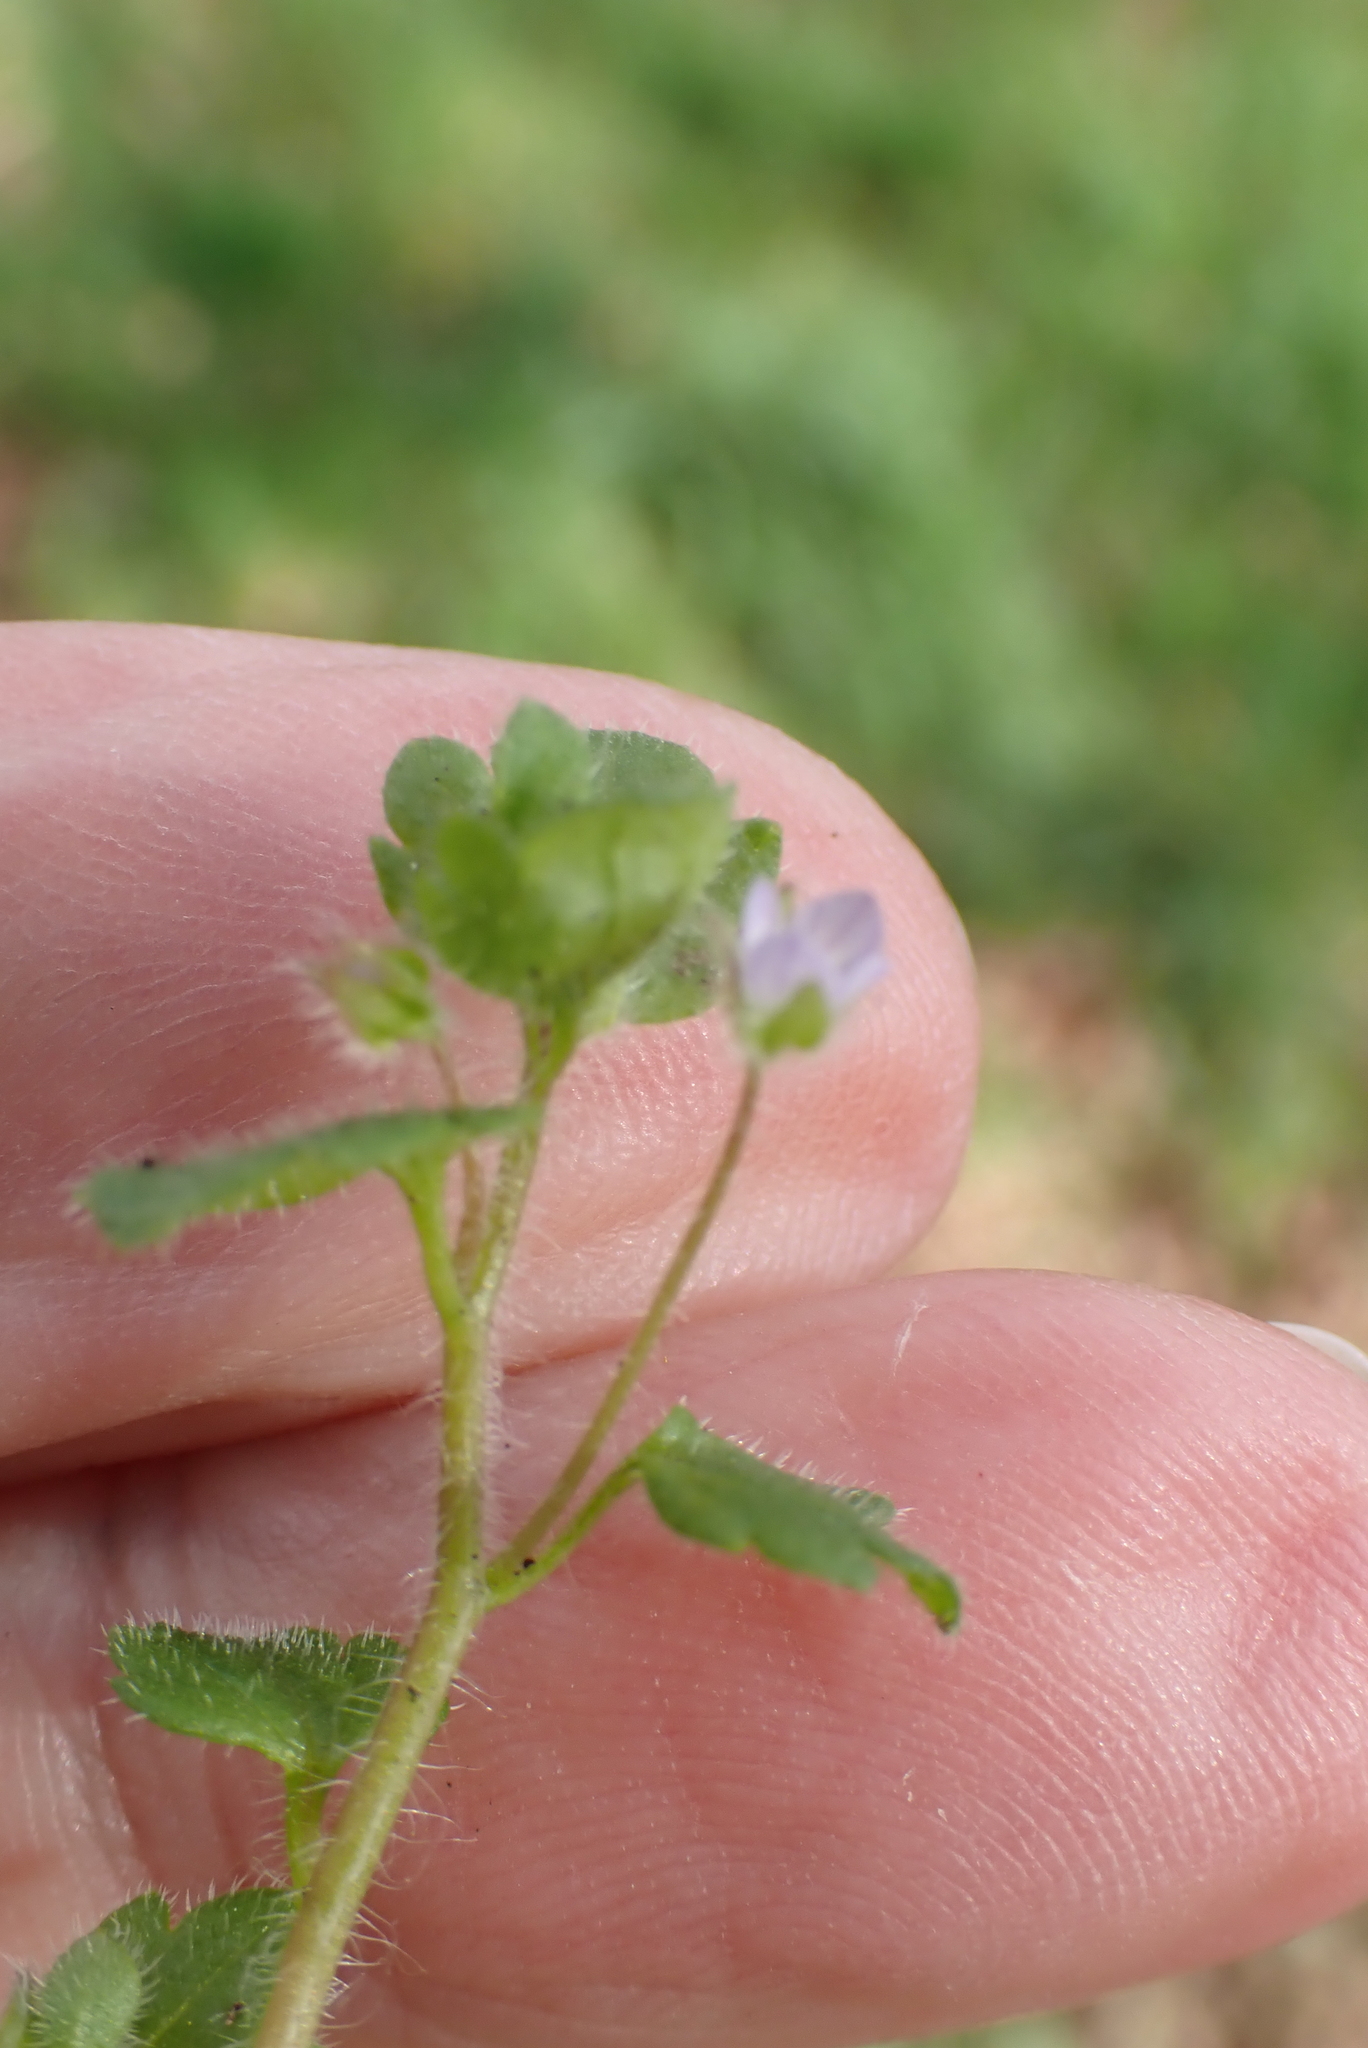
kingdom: Plantae
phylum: Tracheophyta
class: Magnoliopsida
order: Lamiales
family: Plantaginaceae
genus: Veronica
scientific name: Veronica sublobata
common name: False ivy-leaved speedwell
